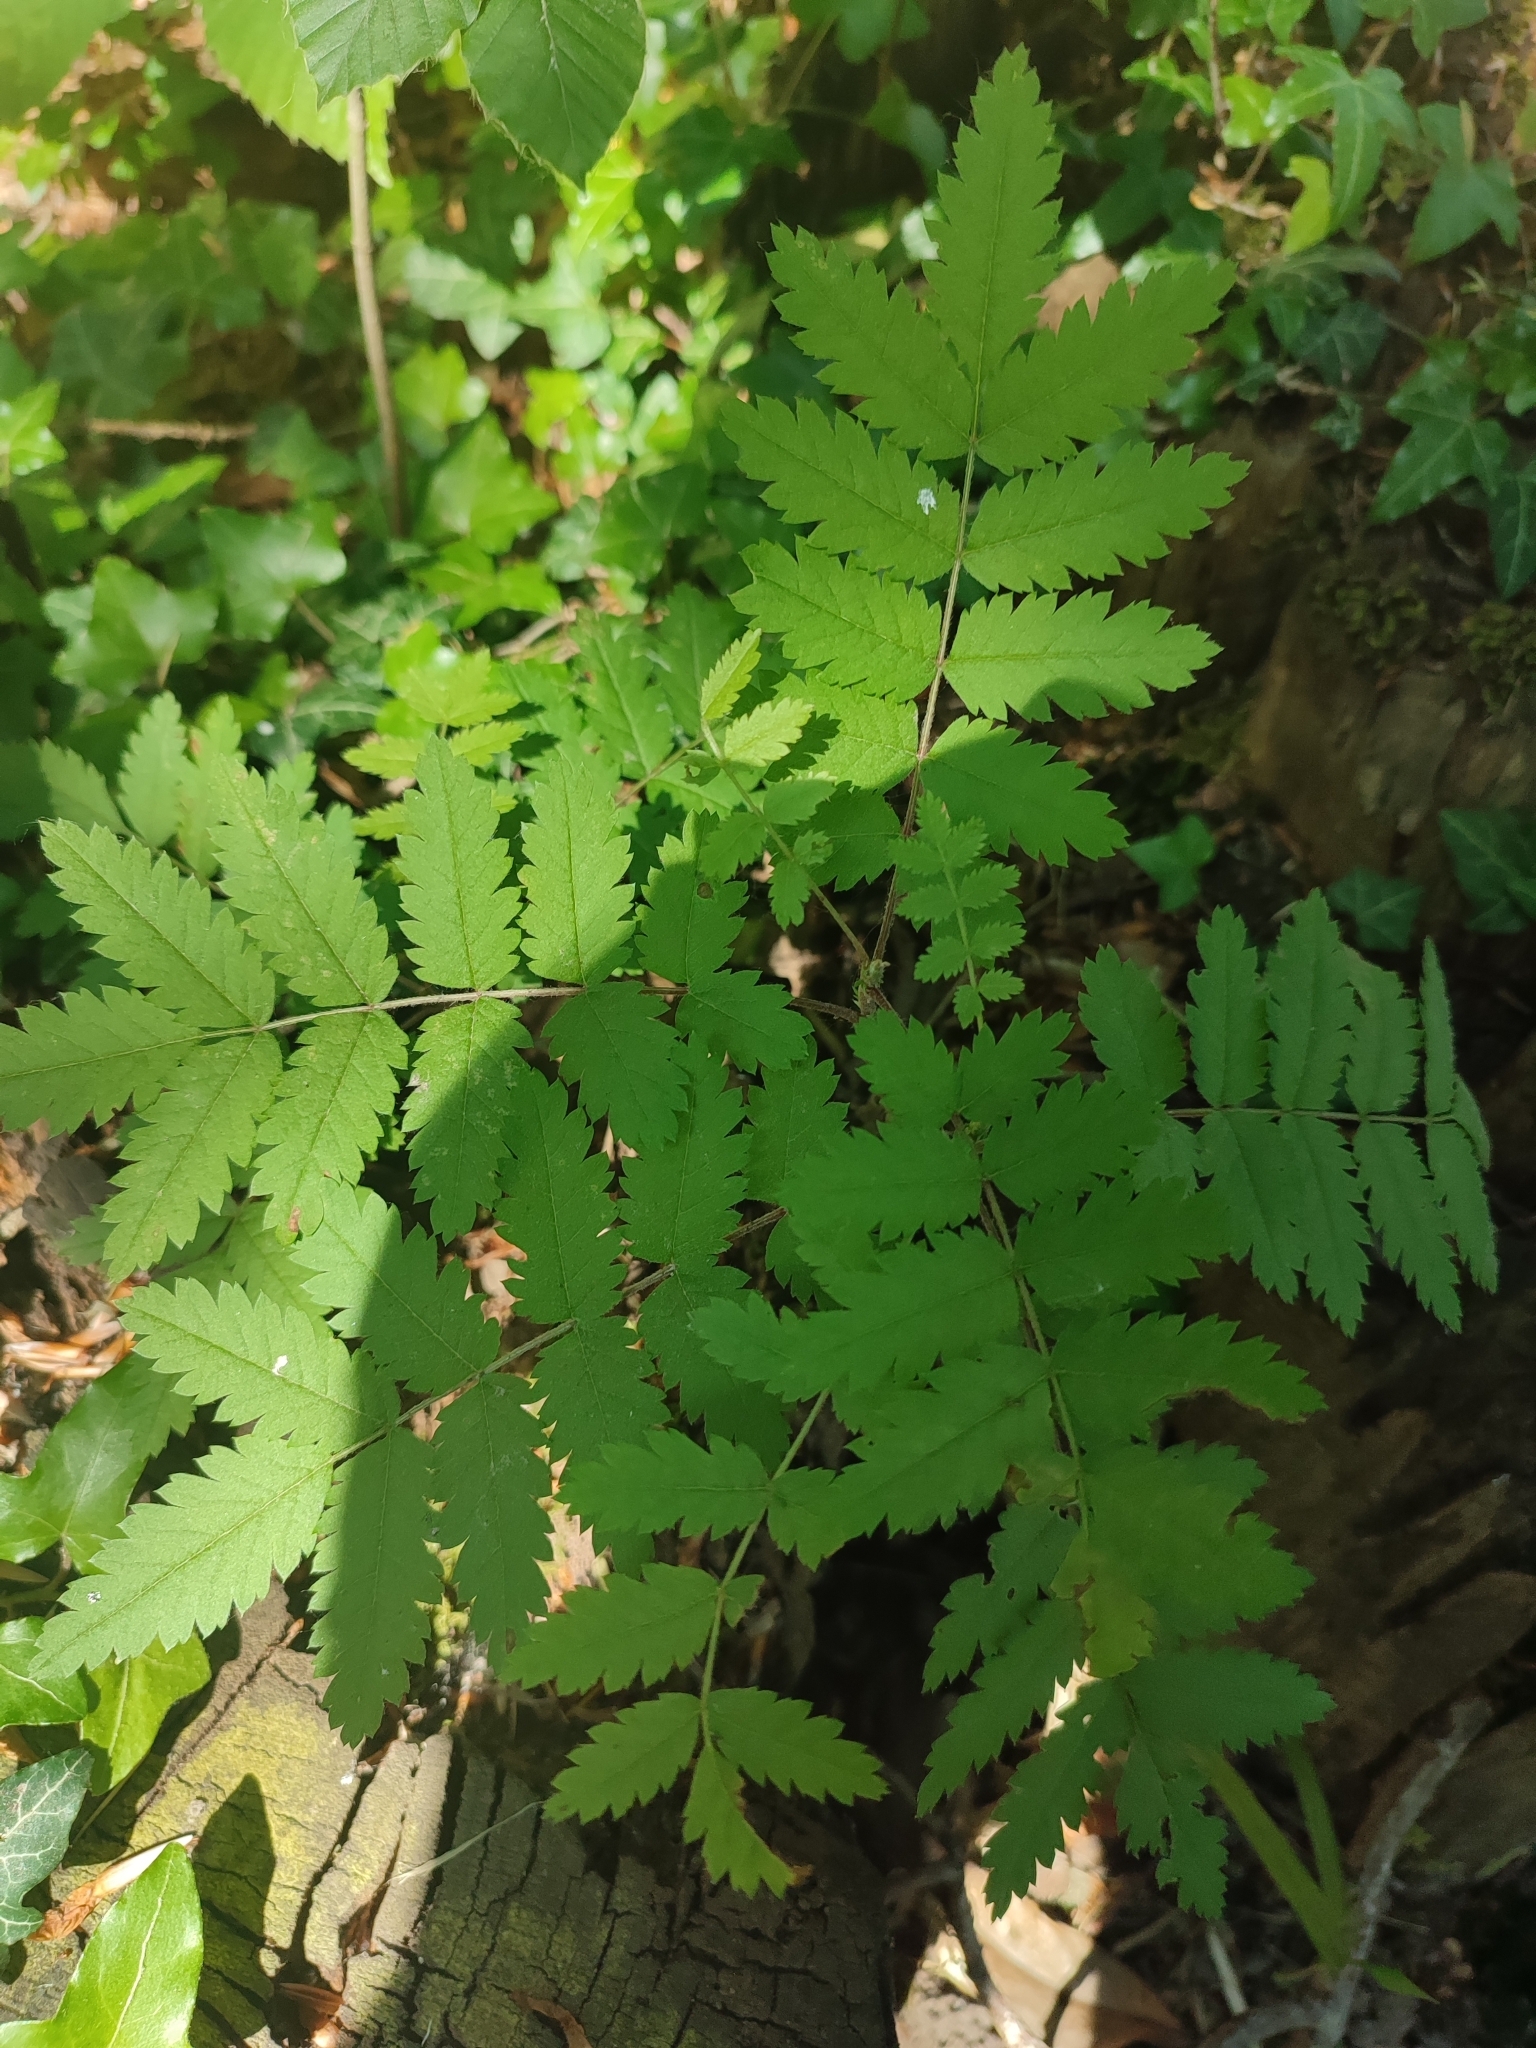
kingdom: Plantae
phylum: Tracheophyta
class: Magnoliopsida
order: Rosales
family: Rosaceae
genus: Sorbus
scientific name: Sorbus aucuparia
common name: Rowan
